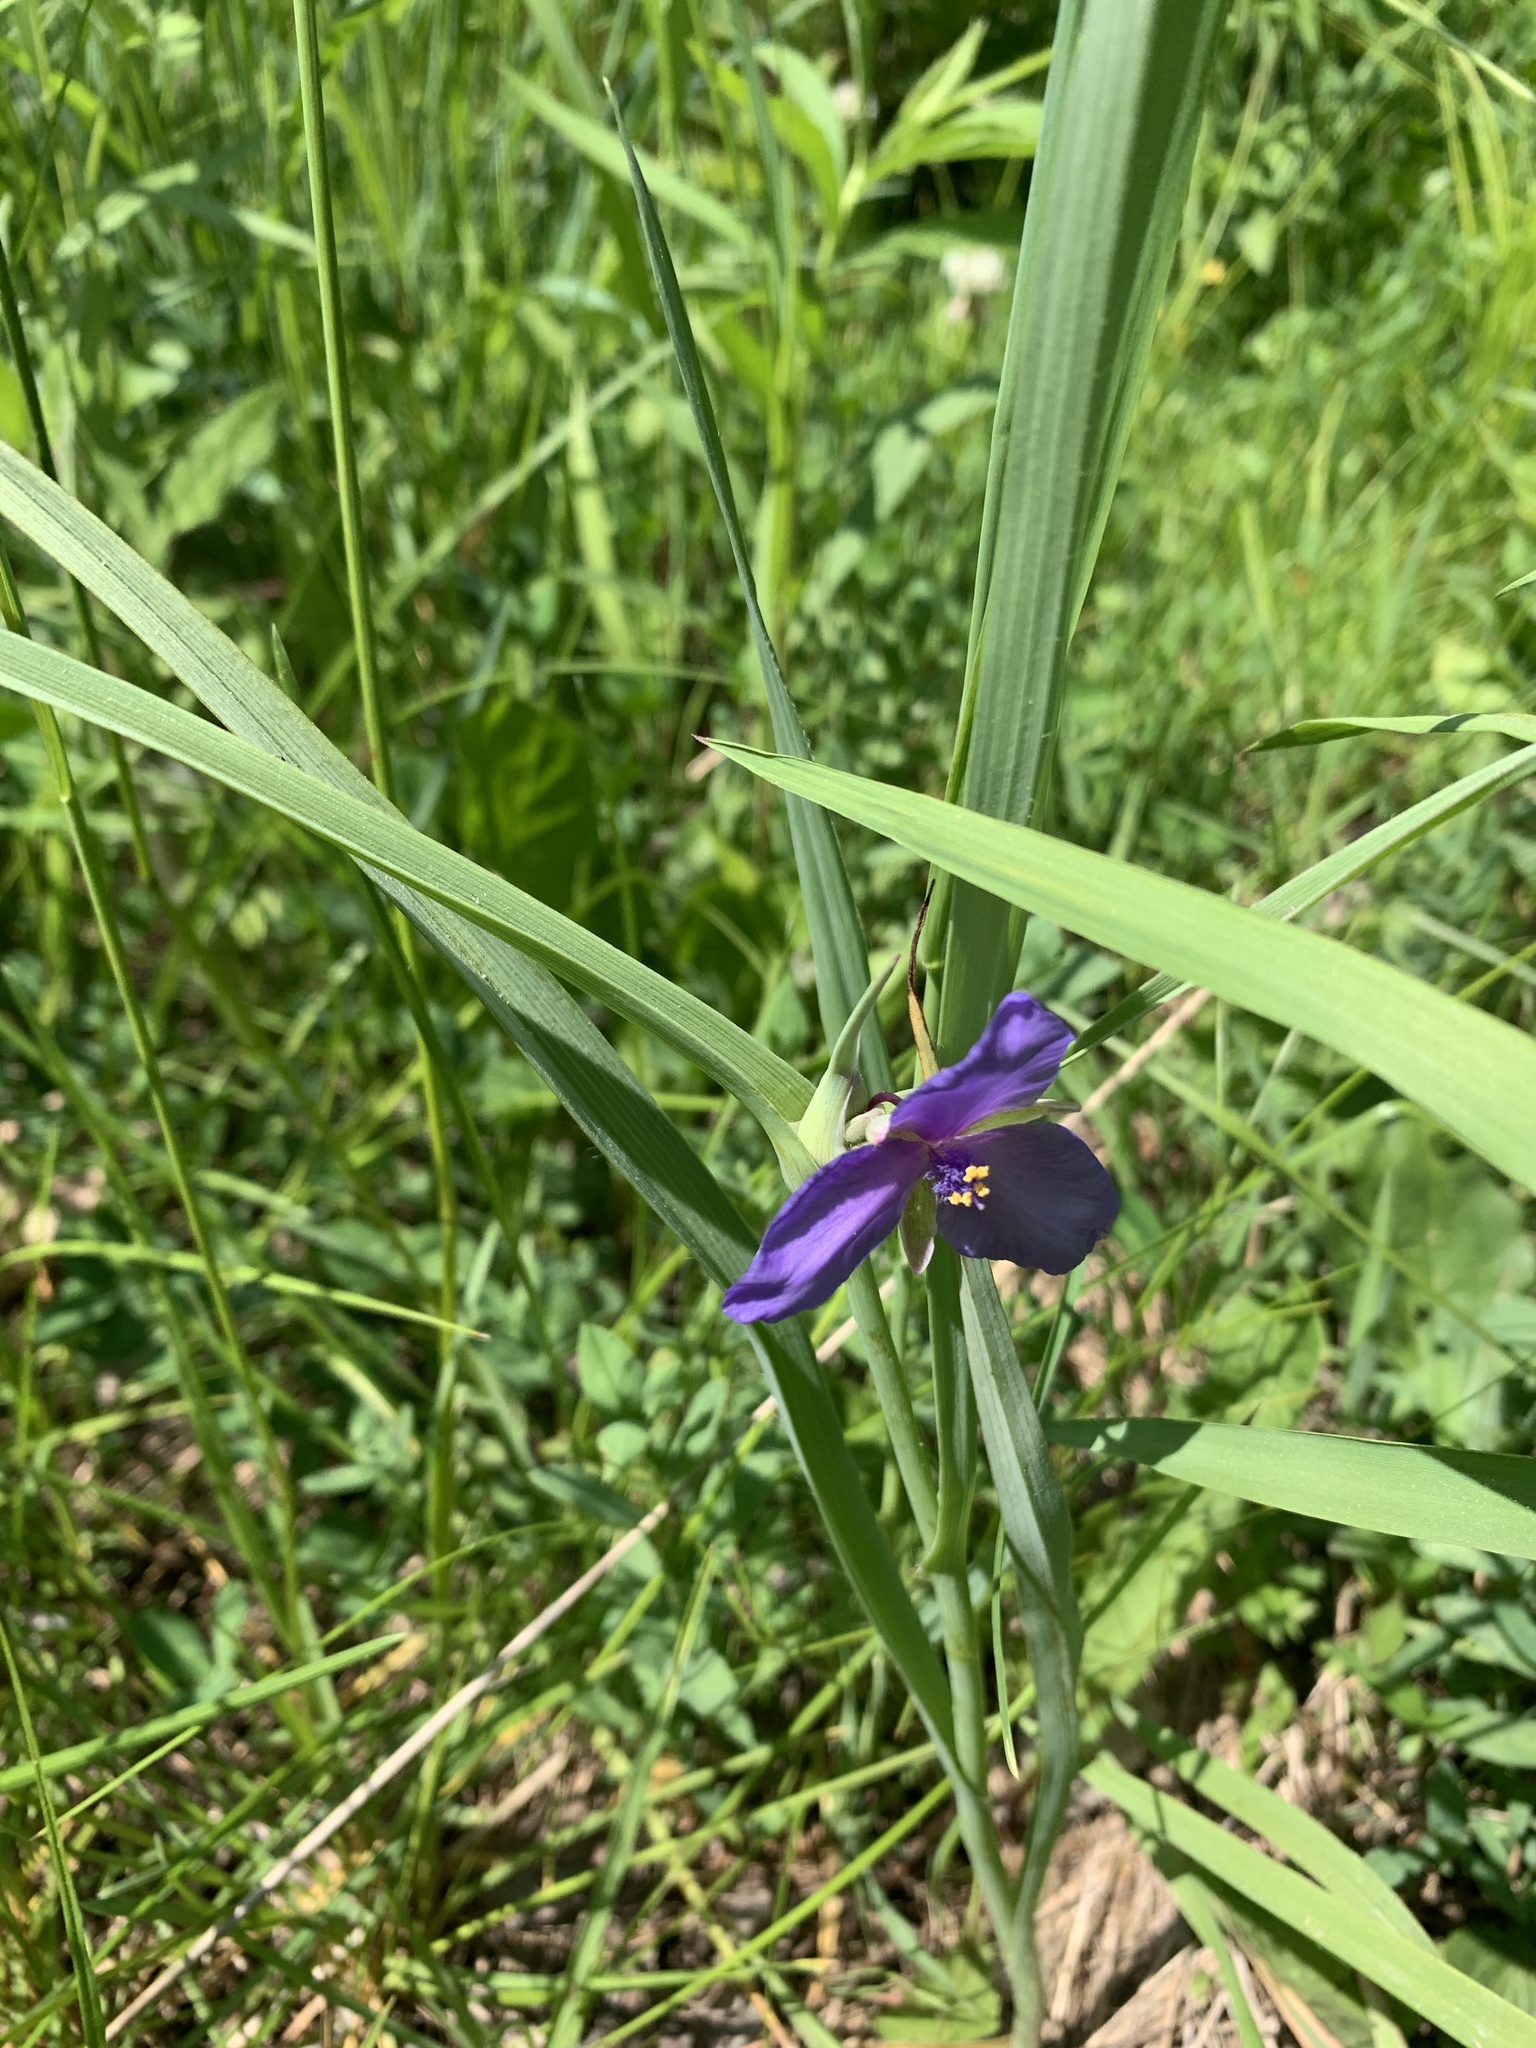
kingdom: Plantae
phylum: Tracheophyta
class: Liliopsida
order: Commelinales
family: Commelinaceae
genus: Tradescantia
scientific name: Tradescantia ohiensis
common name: Ohio spiderwort
